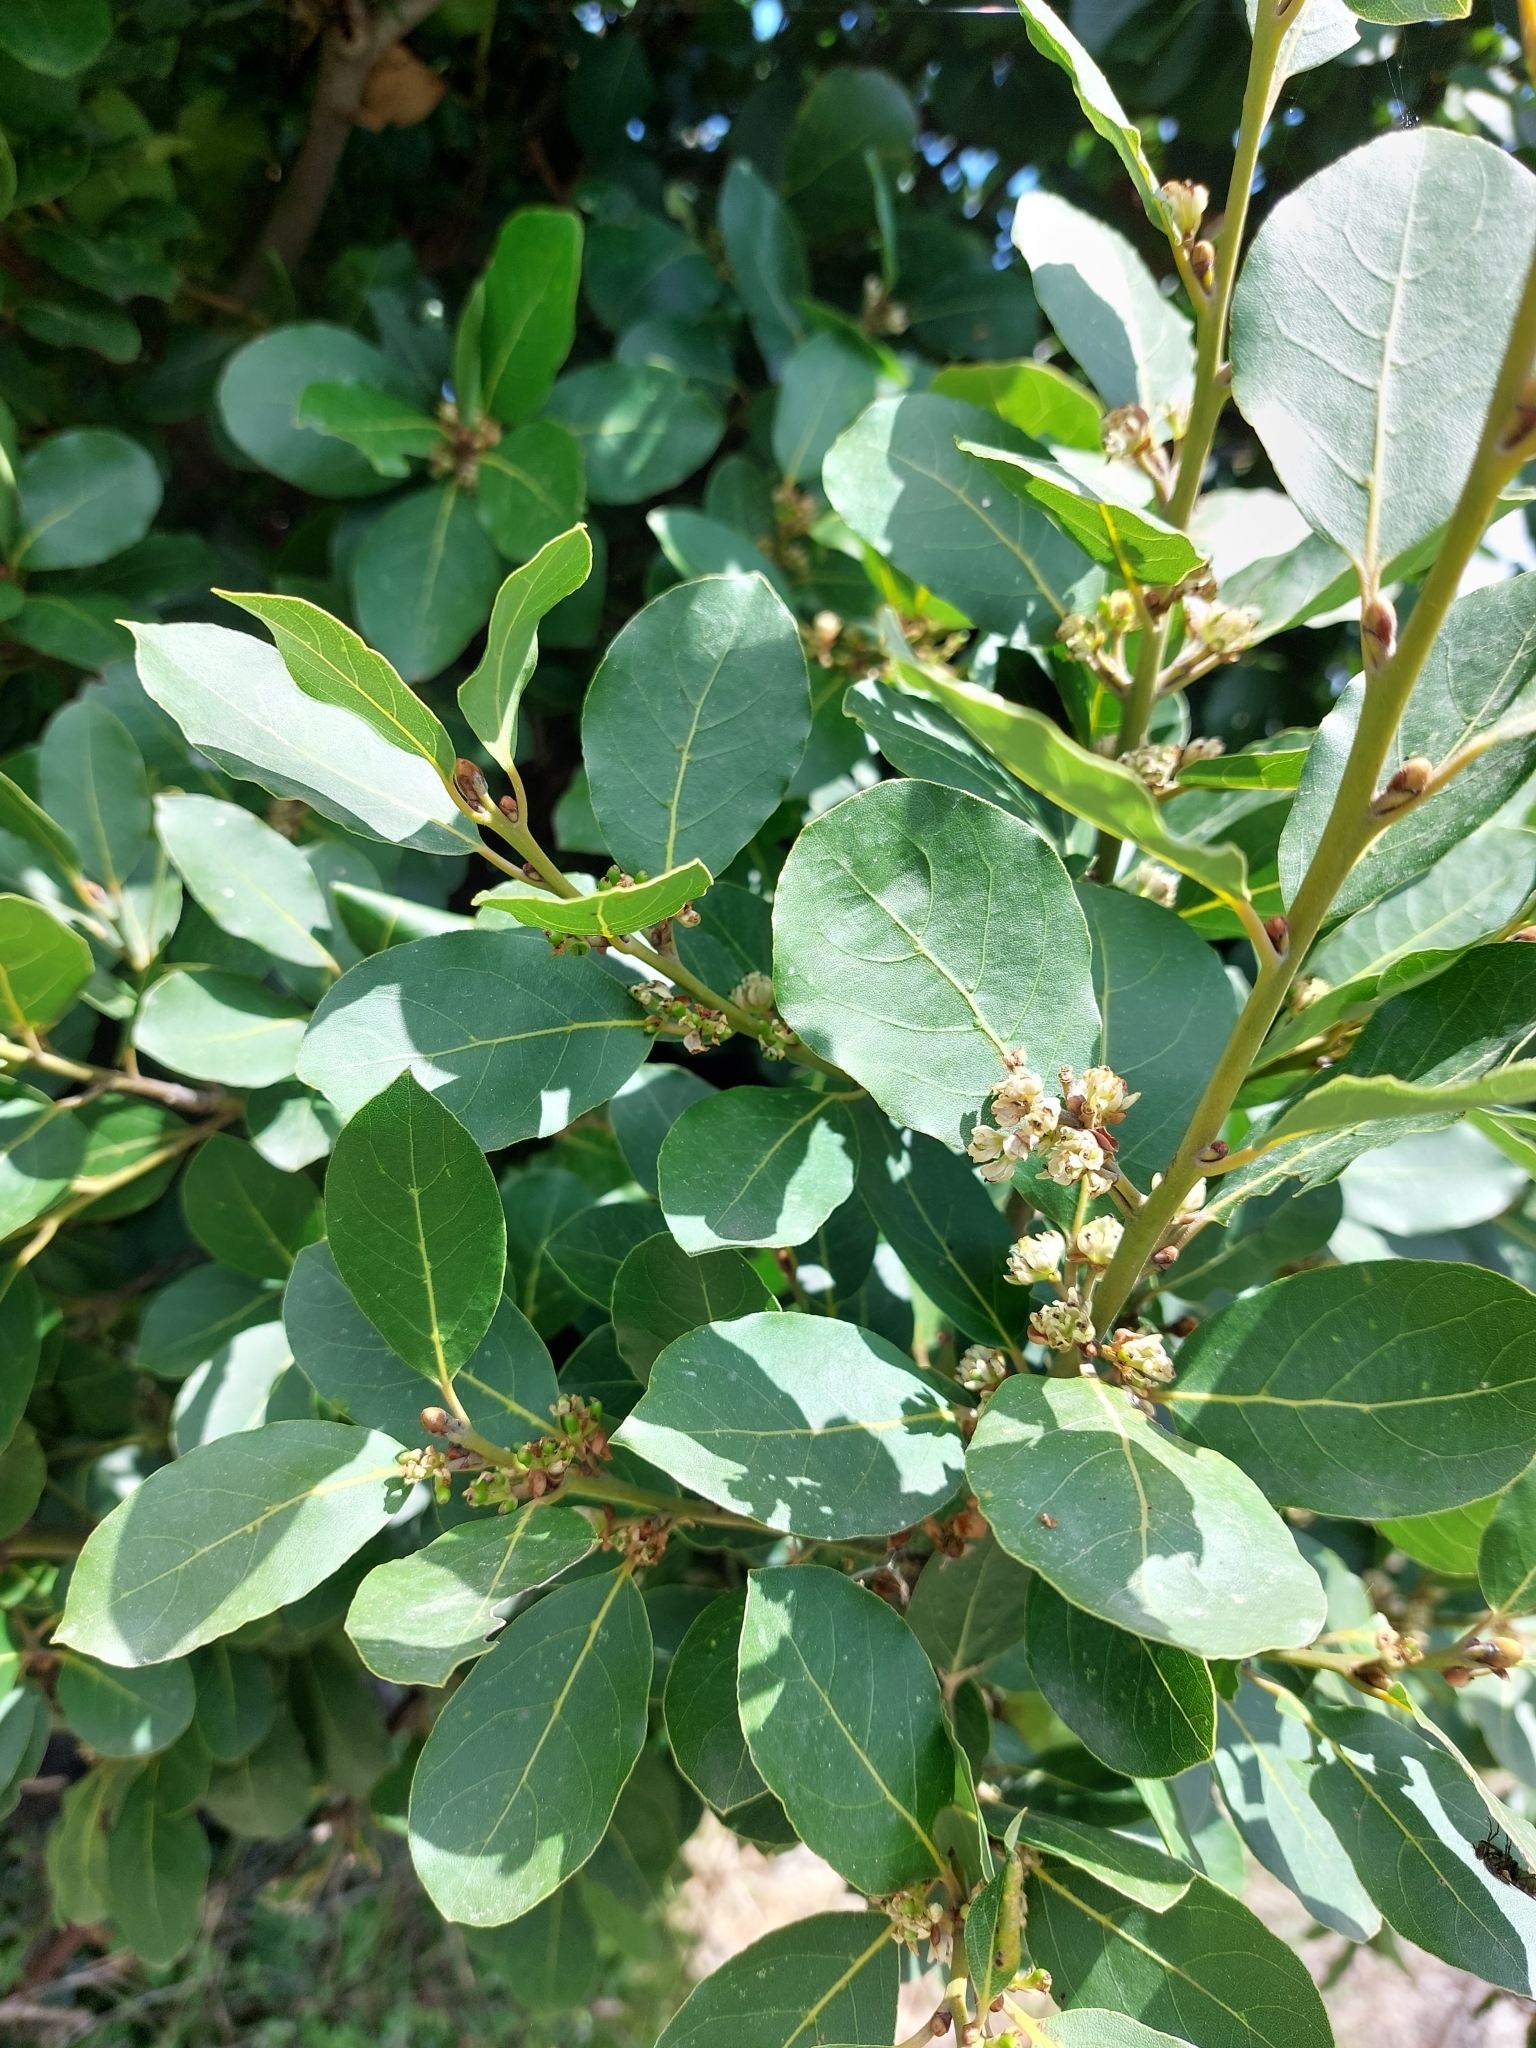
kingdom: Plantae
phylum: Tracheophyta
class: Magnoliopsida
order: Rosales
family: Rhamnaceae
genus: Rhamnus
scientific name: Rhamnus alaternus
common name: Mediterranean buckthorn
